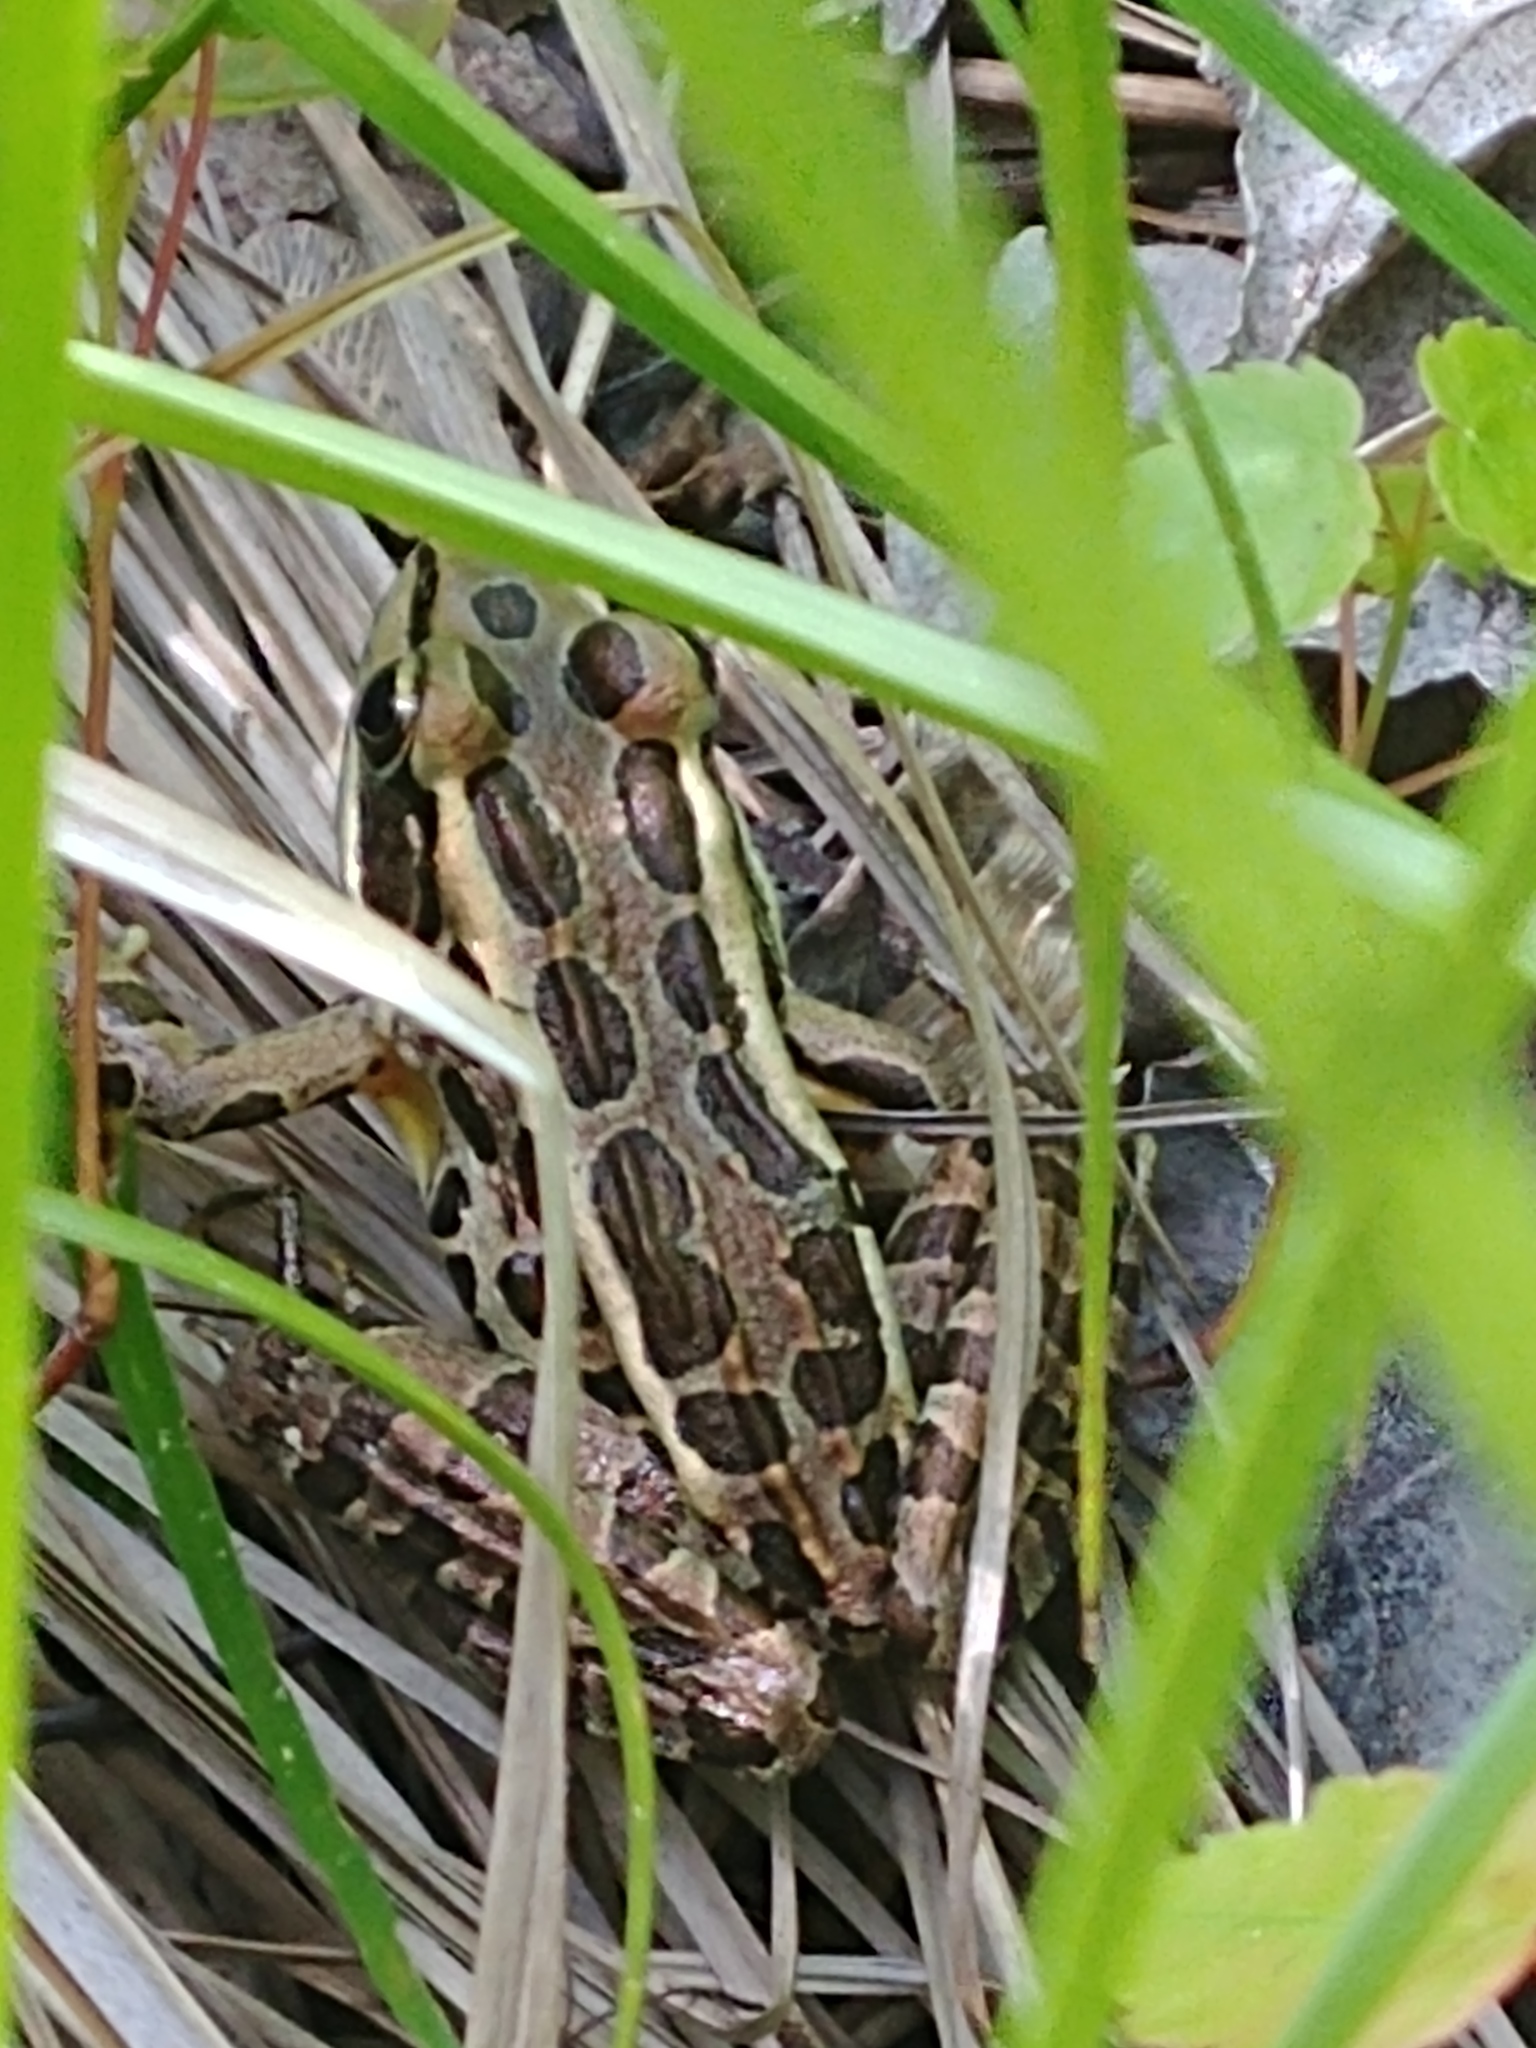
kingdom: Animalia
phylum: Chordata
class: Amphibia
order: Anura
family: Ranidae
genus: Lithobates
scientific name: Lithobates palustris
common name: Pickerel frog
